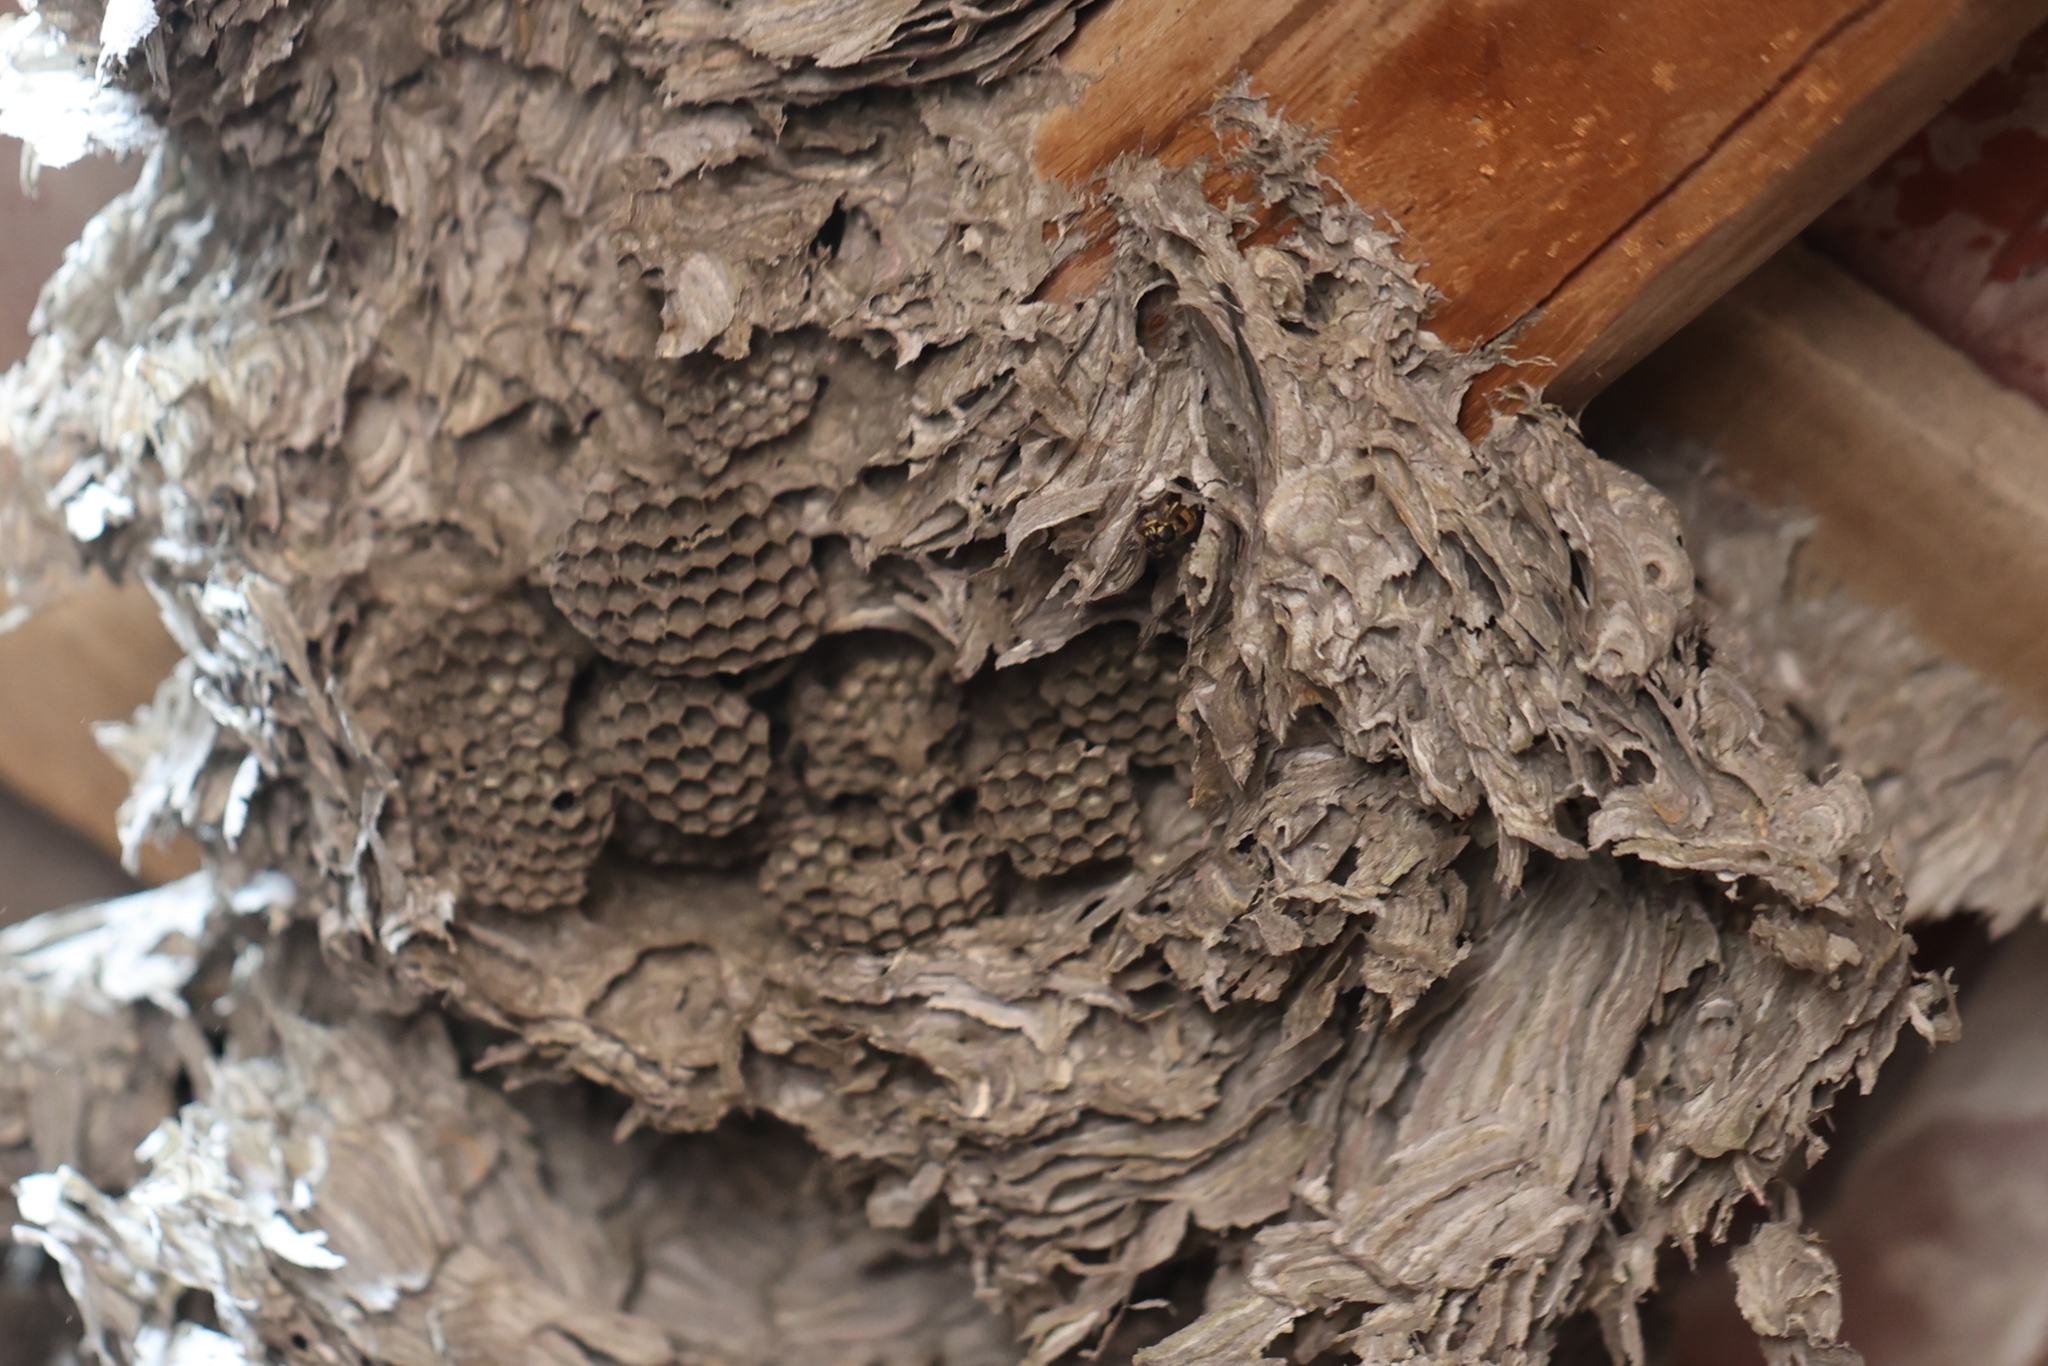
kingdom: Animalia
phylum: Arthropoda
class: Insecta
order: Hymenoptera
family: Vespidae
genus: Vespula
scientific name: Vespula germanica
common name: German wasp
